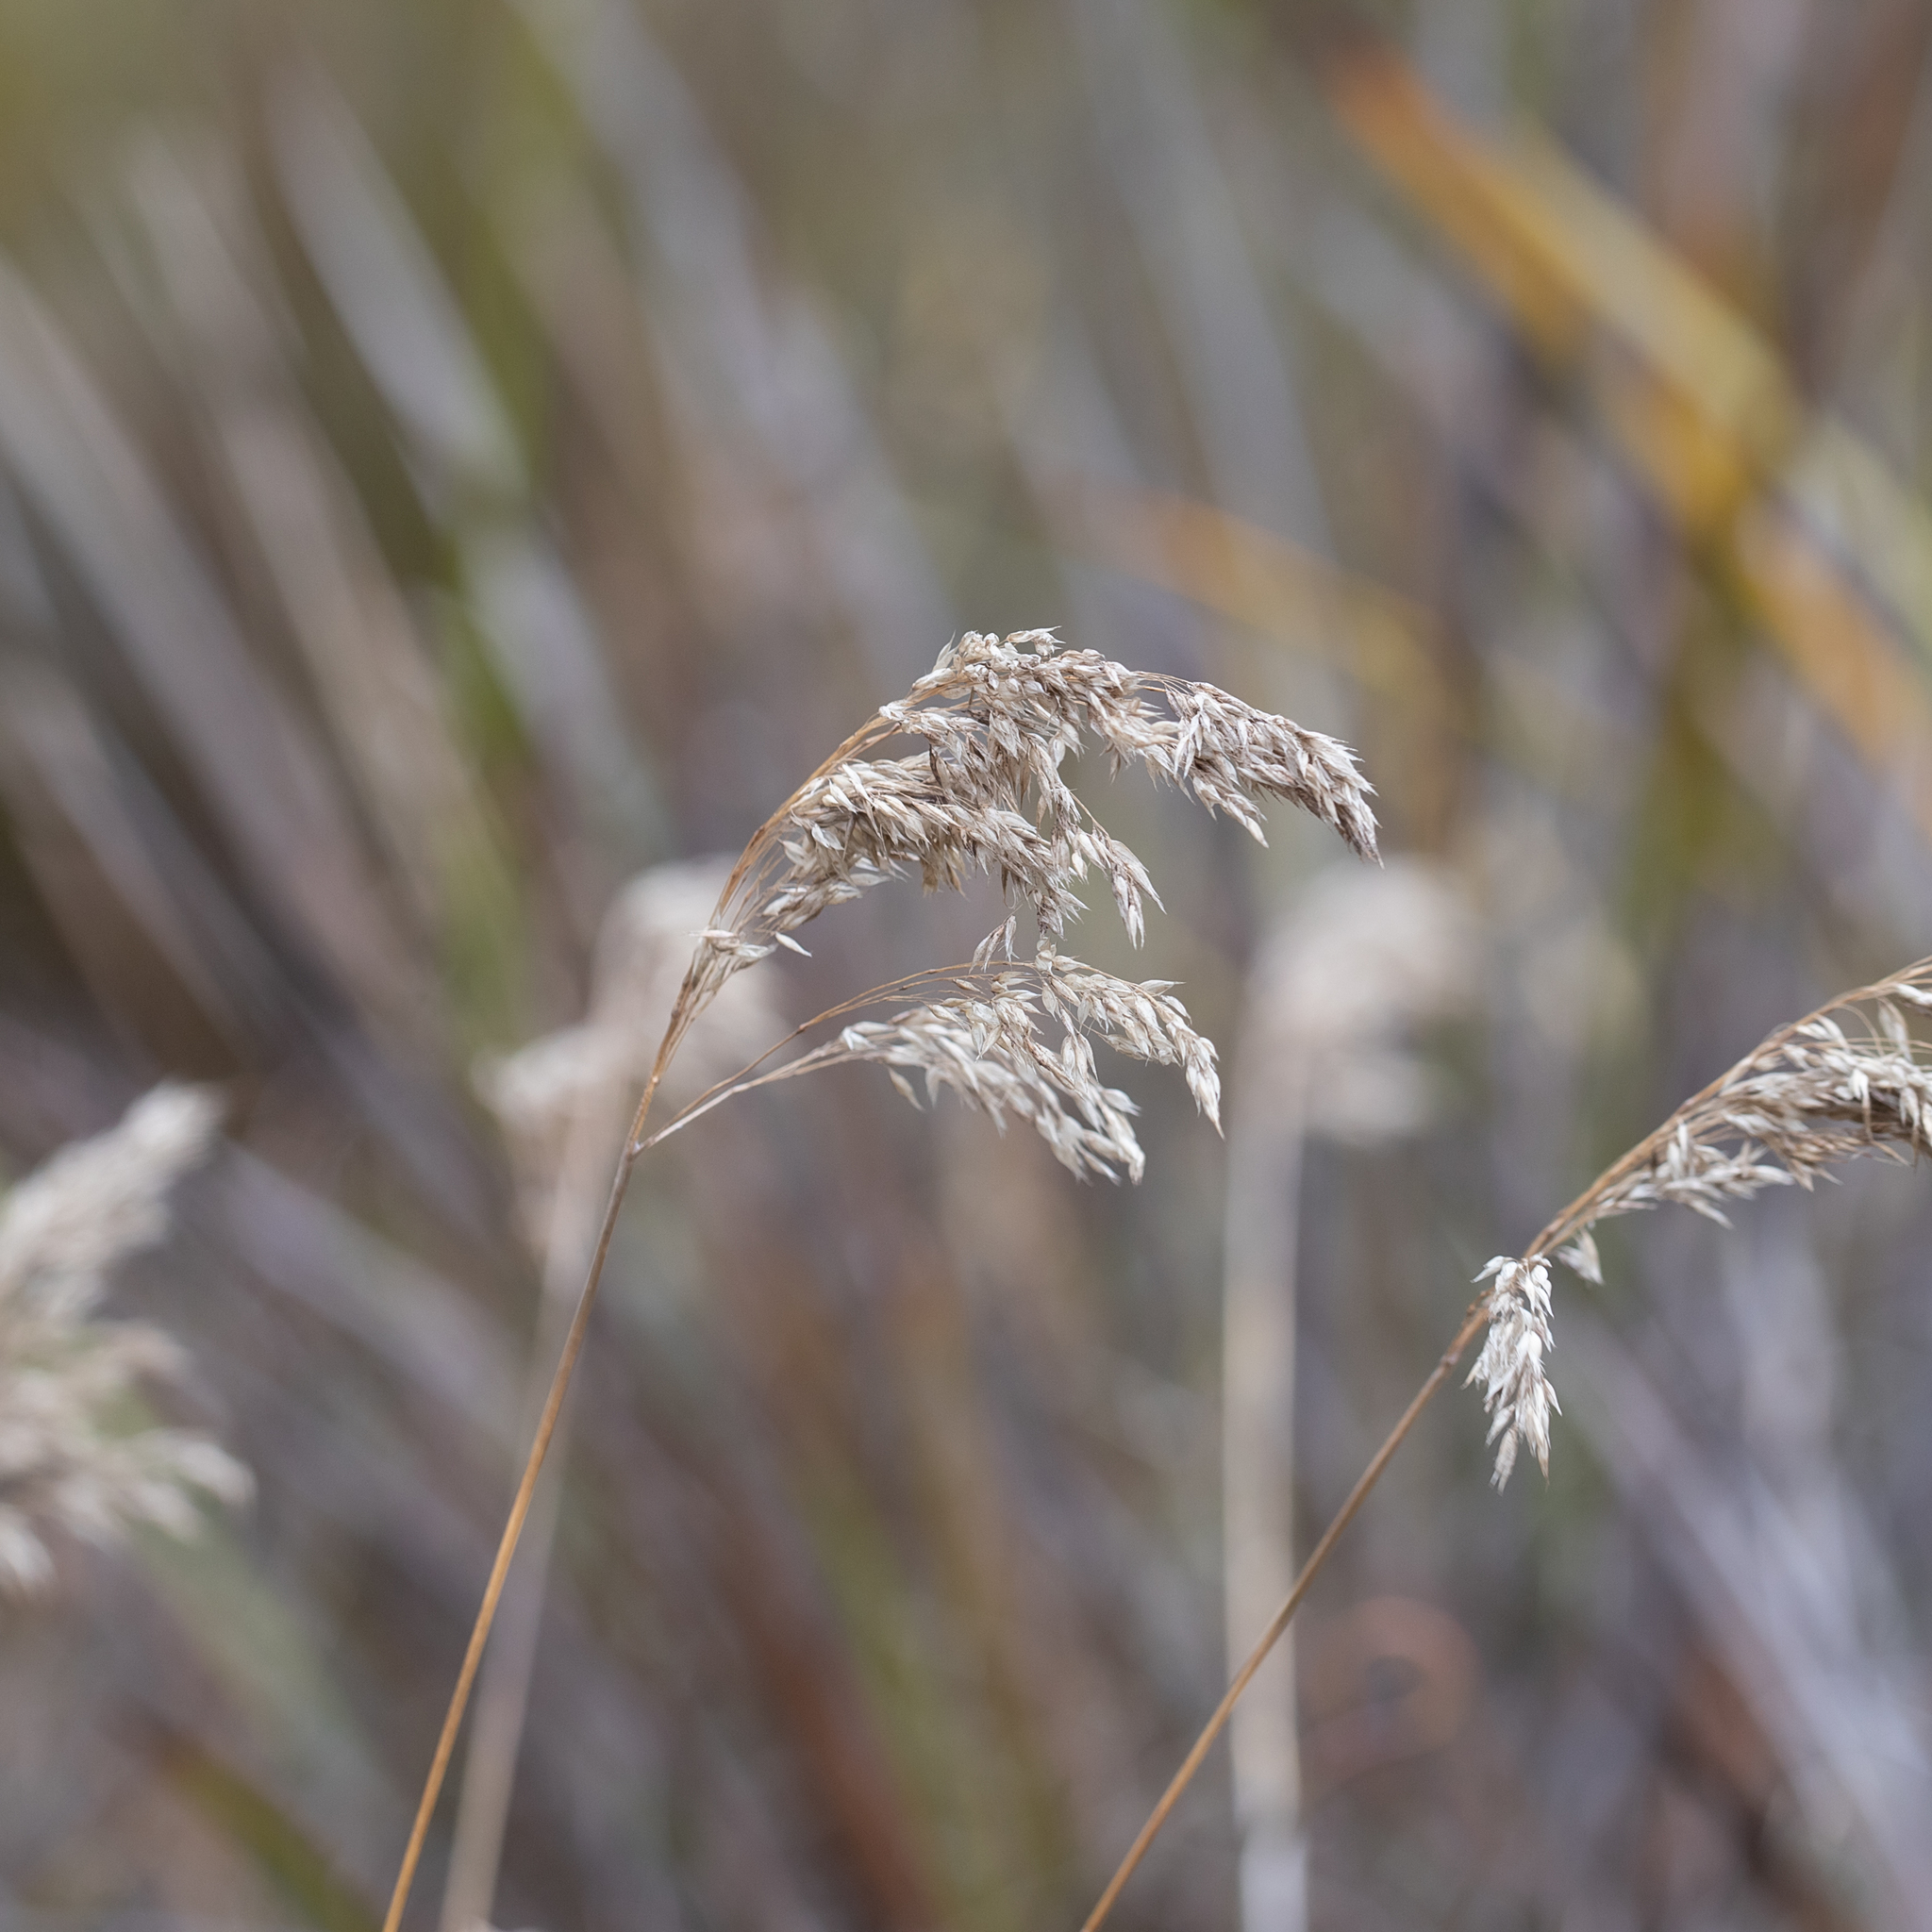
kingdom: Plantae
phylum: Tracheophyta
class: Liliopsida
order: Poales
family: Poaceae
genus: Pentameris
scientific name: Pentameris pallida
